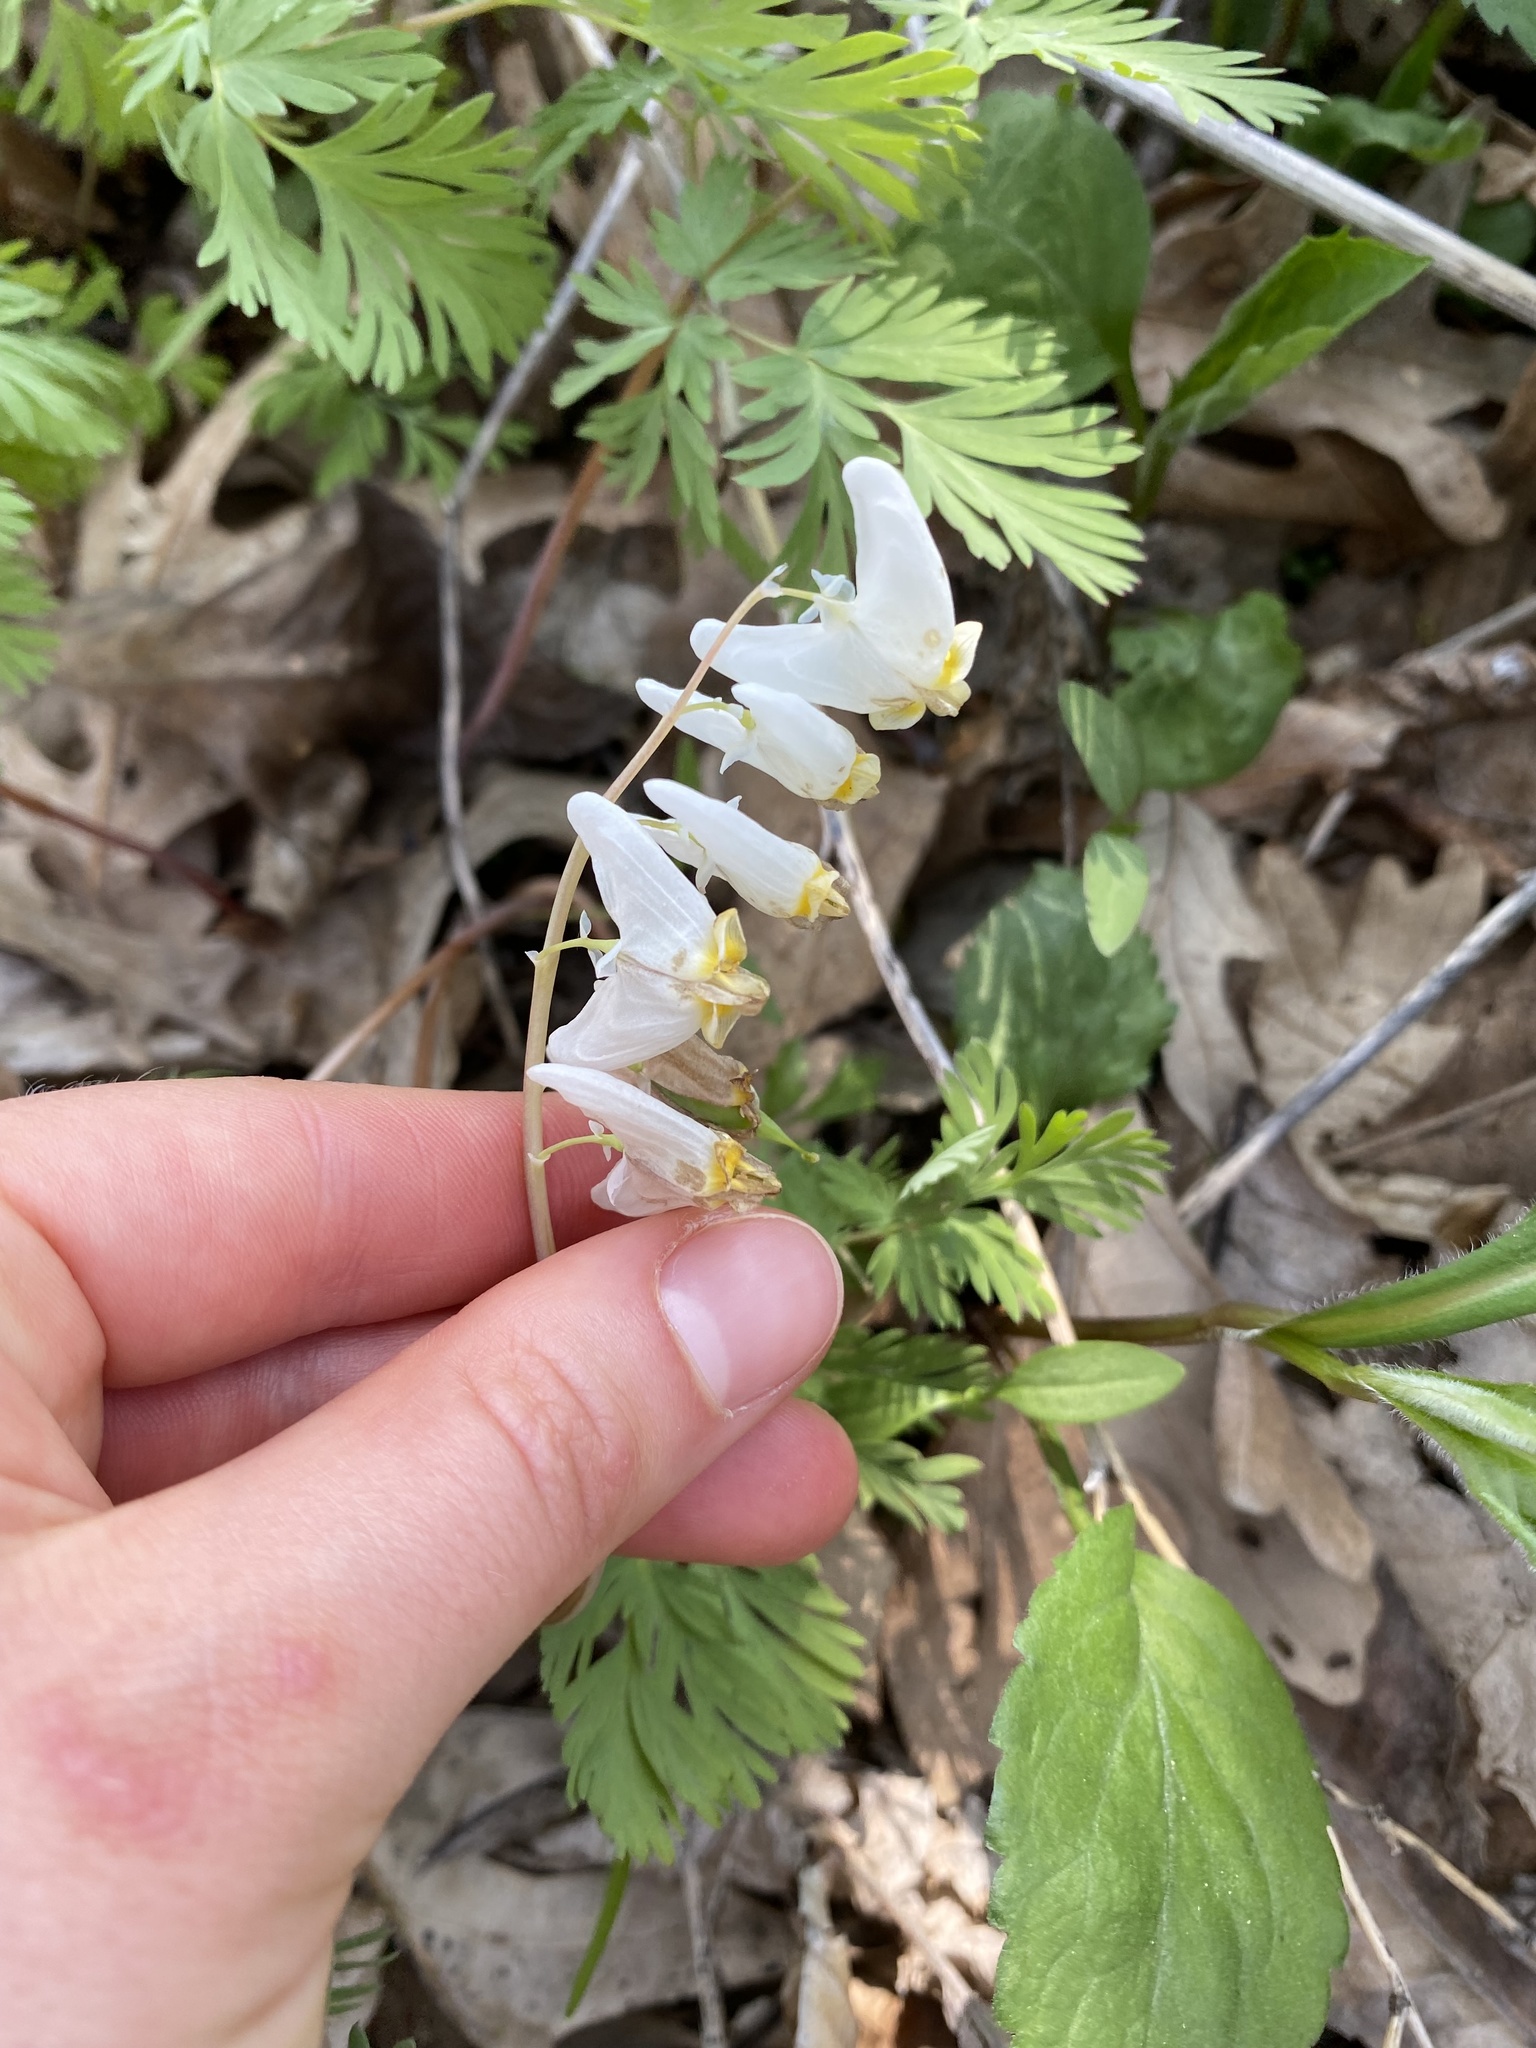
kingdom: Plantae
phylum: Tracheophyta
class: Magnoliopsida
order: Ranunculales
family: Papaveraceae
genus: Dicentra
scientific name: Dicentra cucullaria
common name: Dutchman's breeches
